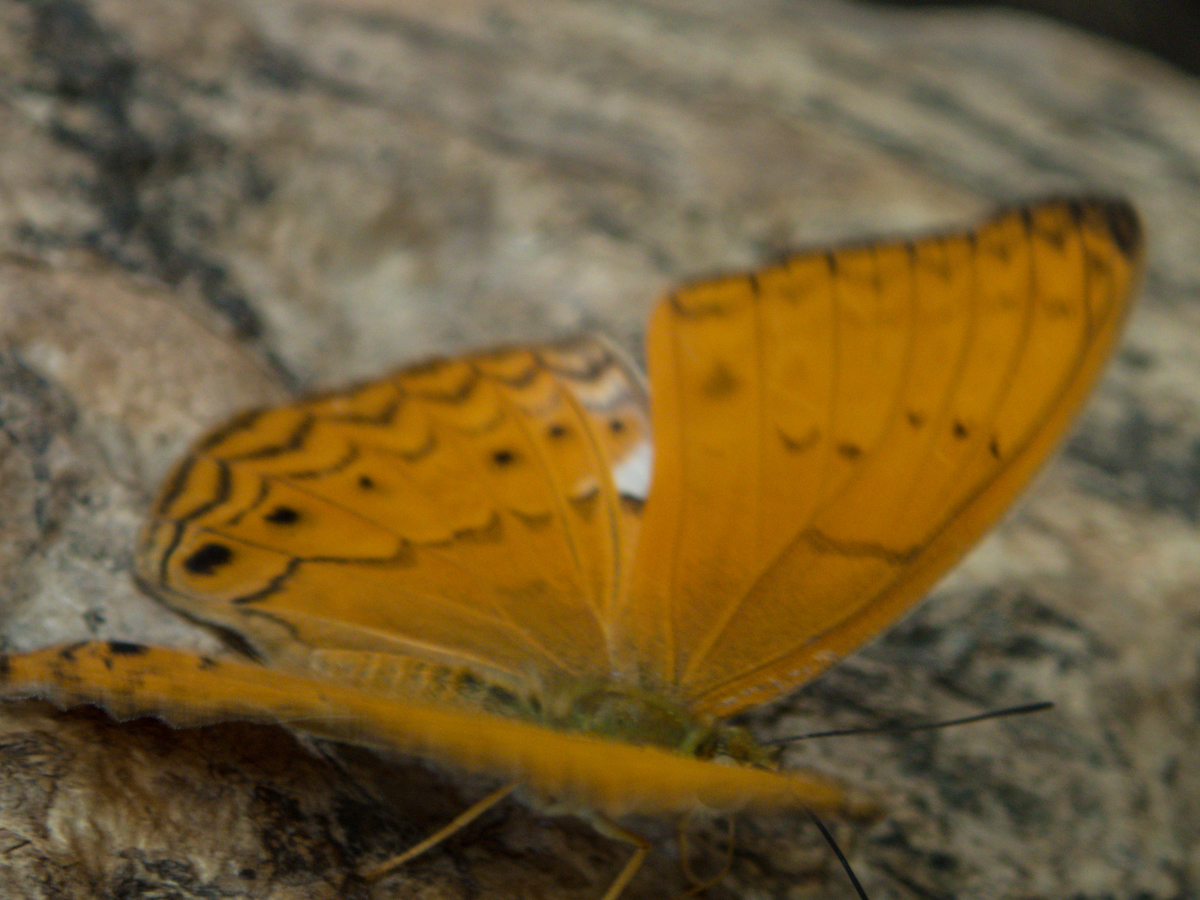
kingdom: Animalia
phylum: Arthropoda
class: Insecta
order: Lepidoptera
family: Nymphalidae
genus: Cirrochroa
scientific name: Cirrochroa tyche
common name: Common yeoman
